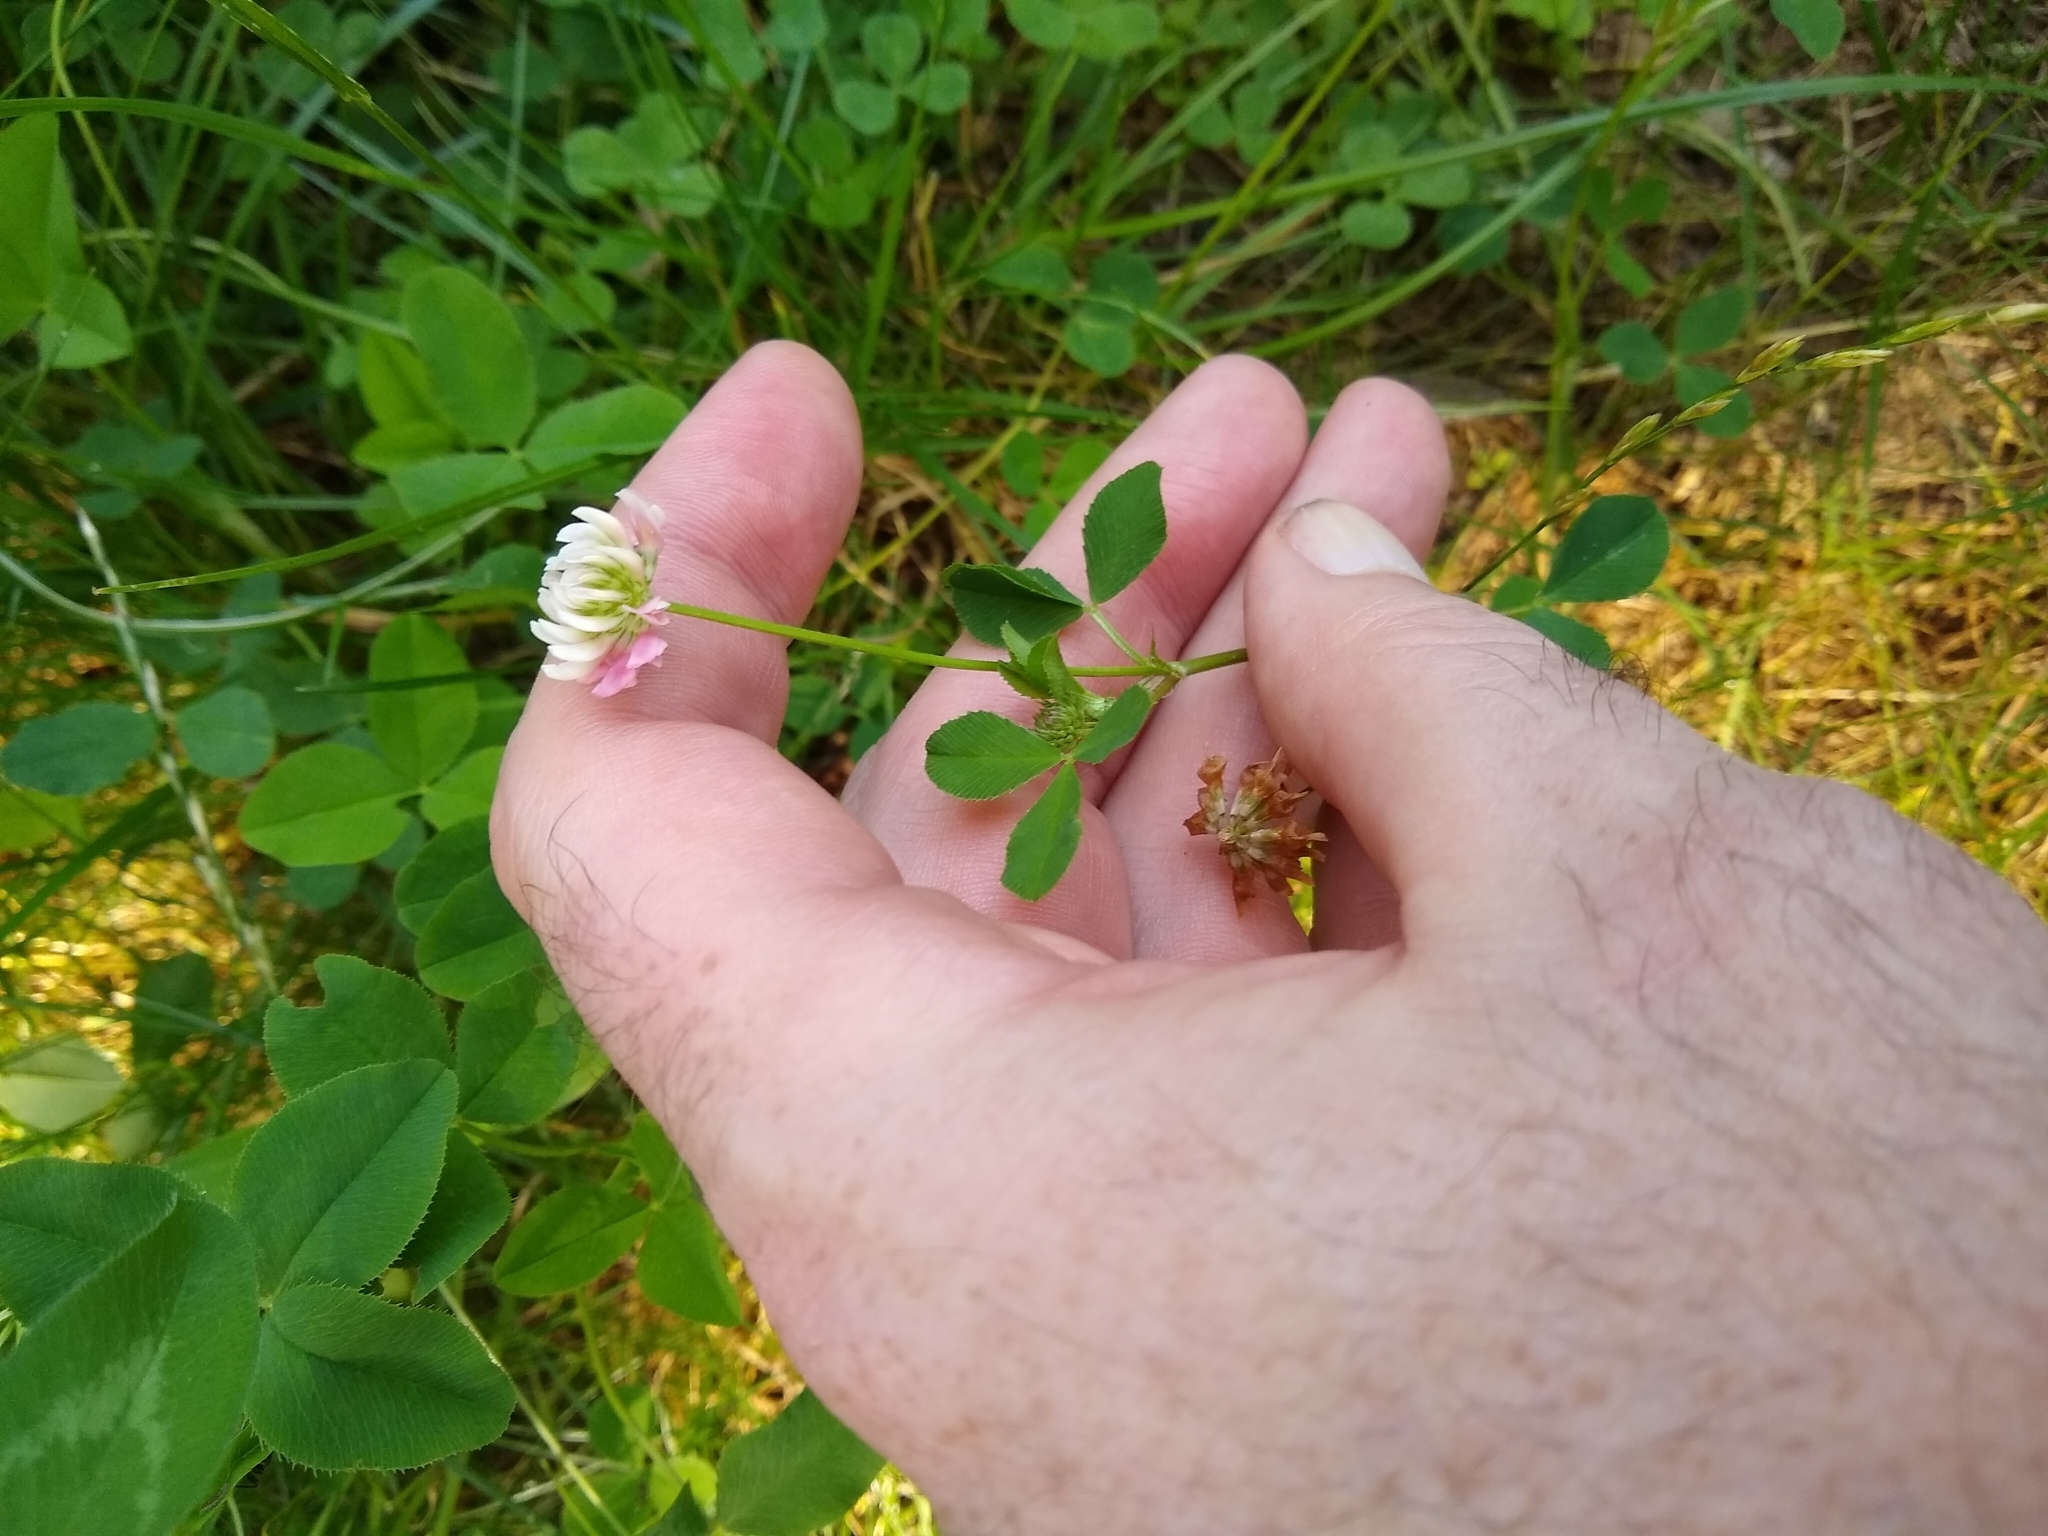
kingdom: Plantae
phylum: Tracheophyta
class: Magnoliopsida
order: Fabales
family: Fabaceae
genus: Trifolium
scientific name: Trifolium hybridum
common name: Alsike clover
